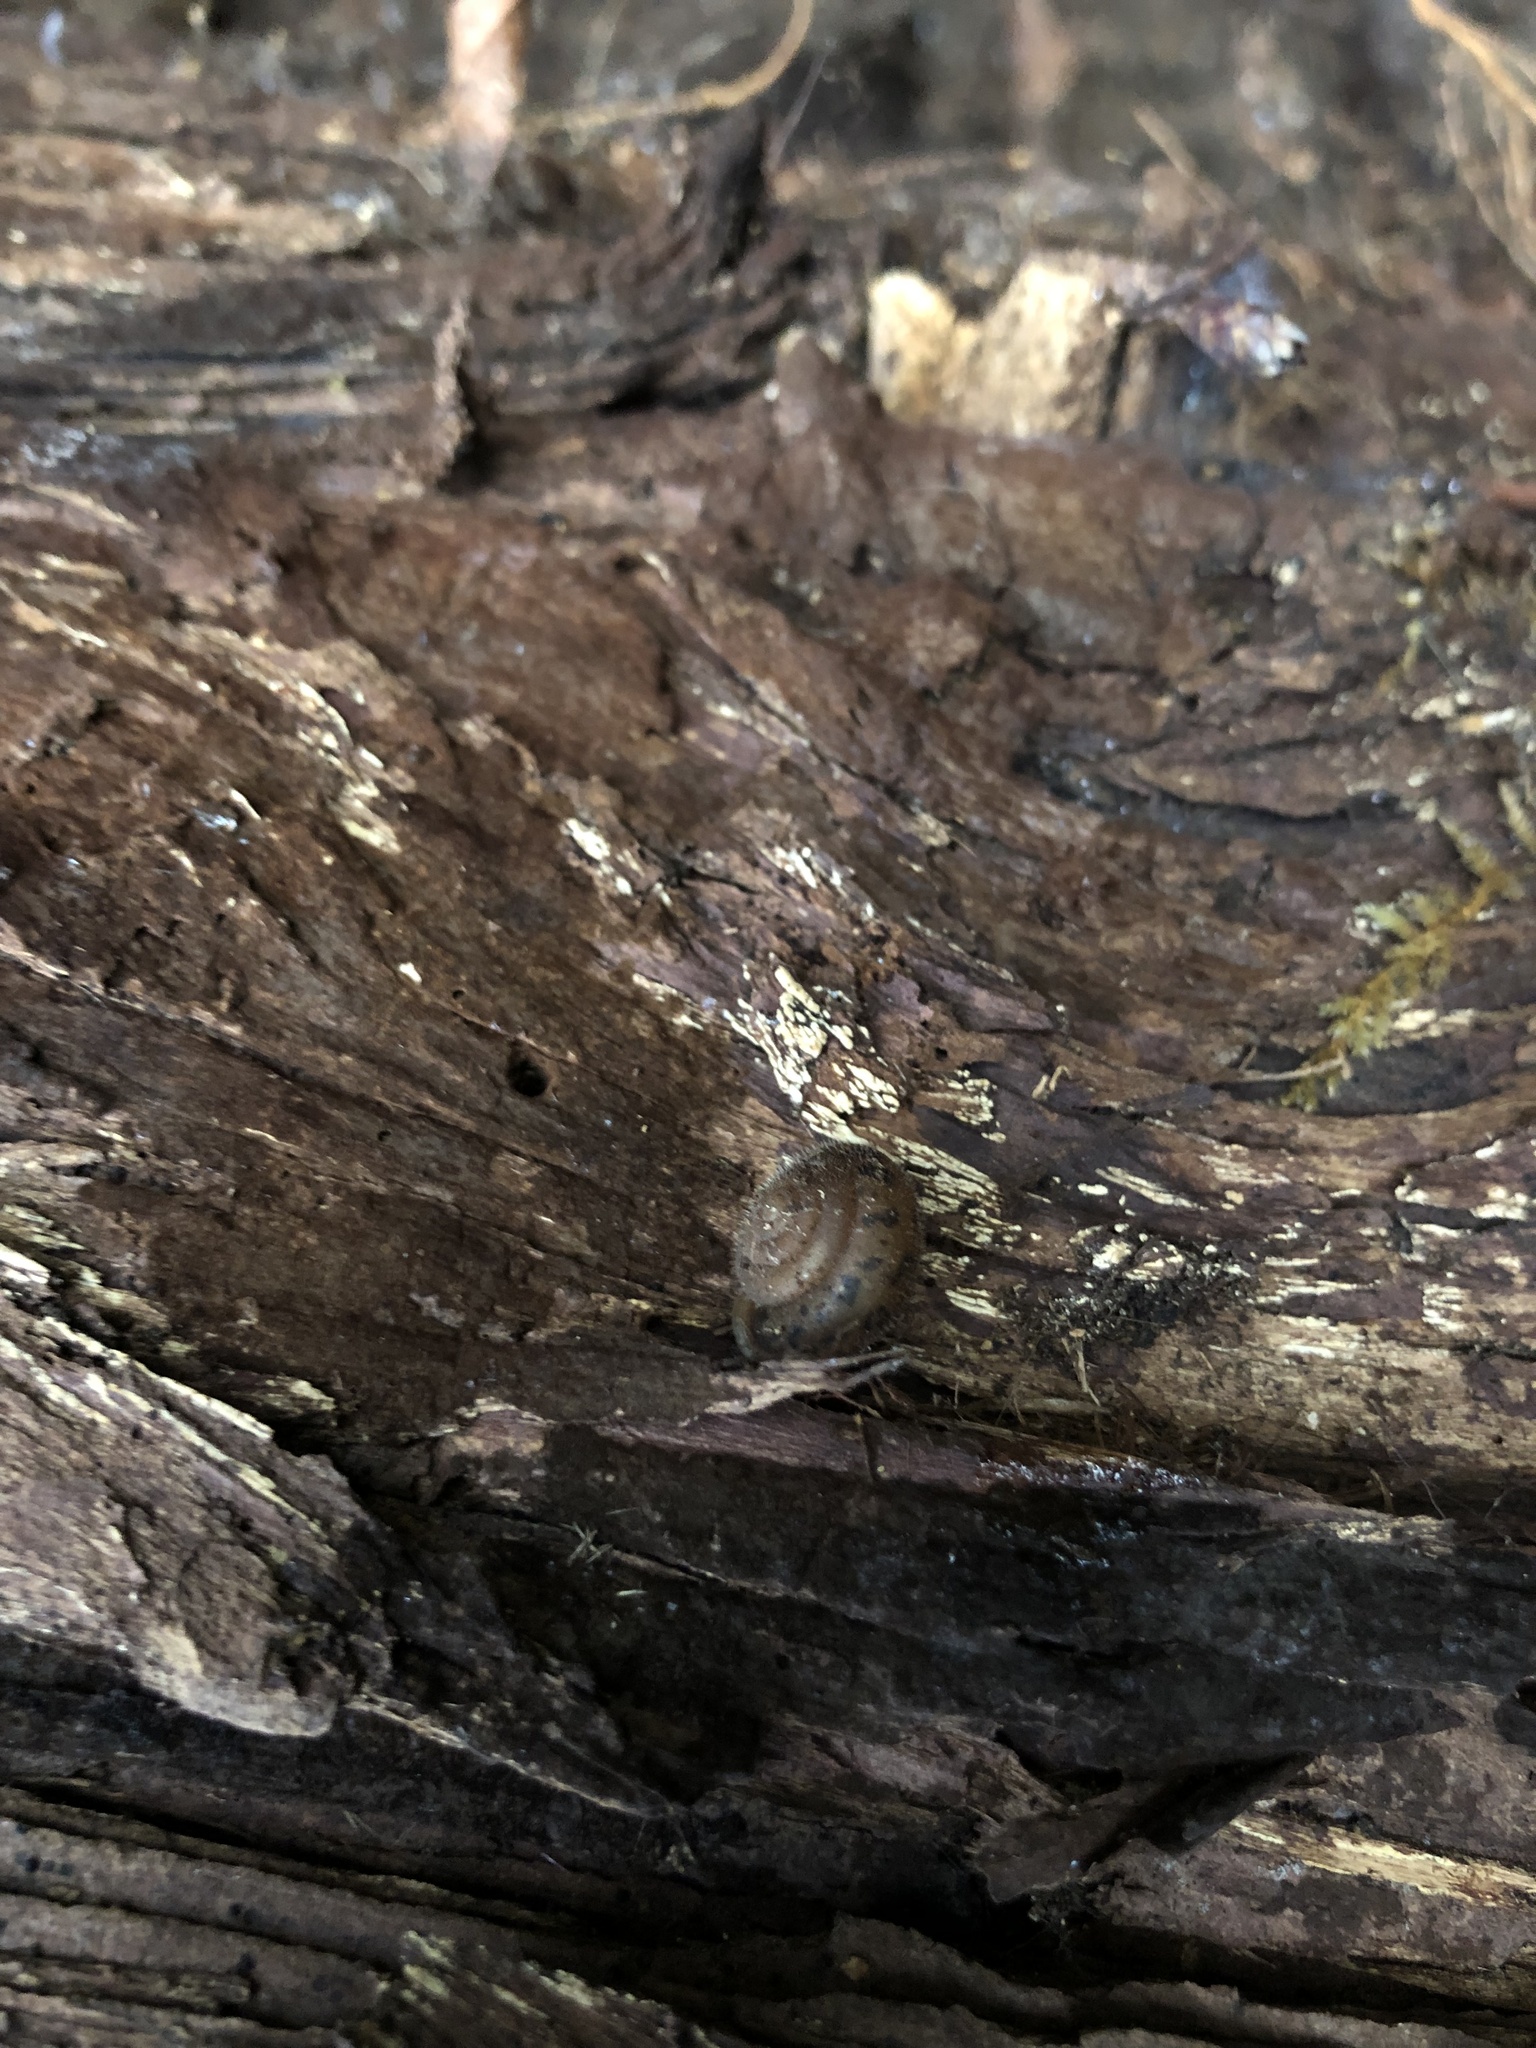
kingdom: Animalia
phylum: Mollusca
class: Gastropoda
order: Stylommatophora
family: Polygyridae
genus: Vespericola
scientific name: Vespericola columbianus
